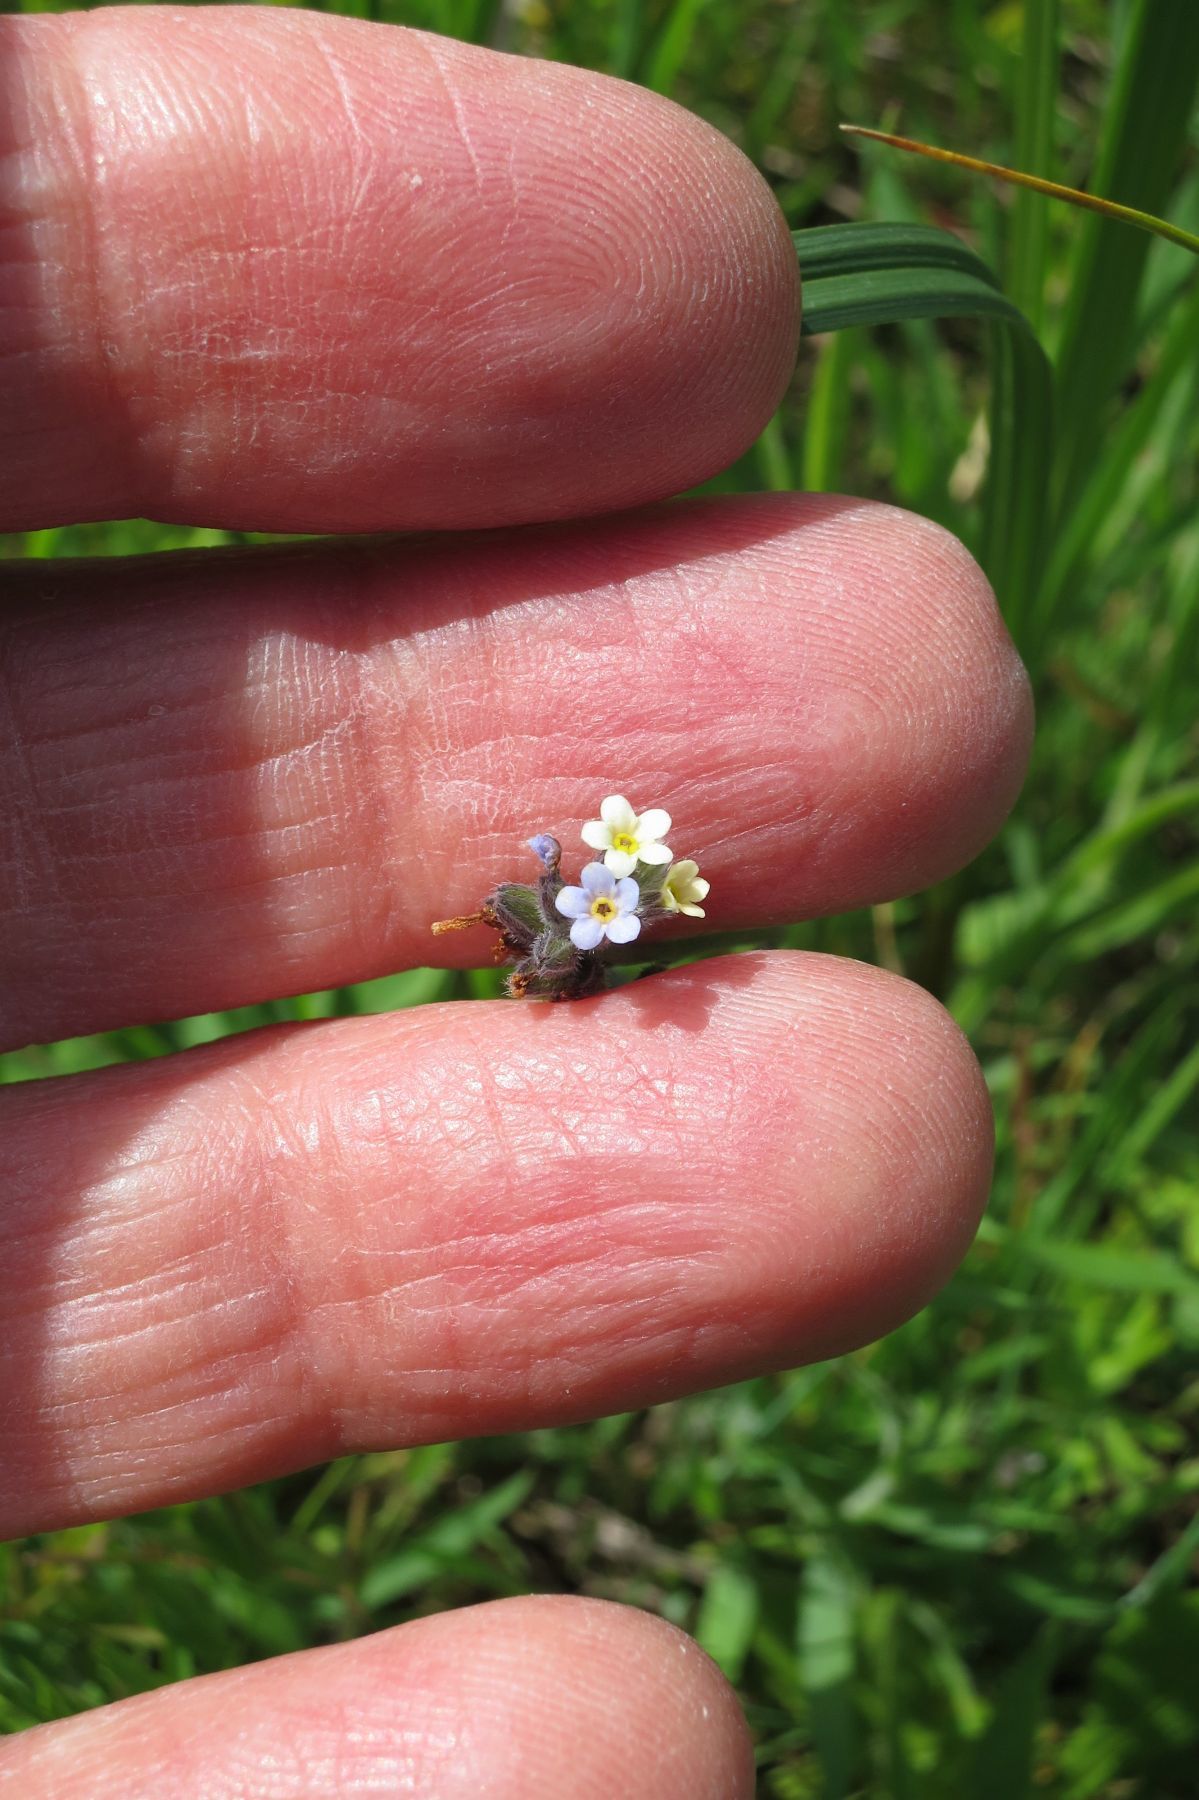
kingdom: Plantae
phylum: Tracheophyta
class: Magnoliopsida
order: Boraginales
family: Boraginaceae
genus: Myosotis
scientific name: Myosotis discolor
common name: Changing forget-me-not
